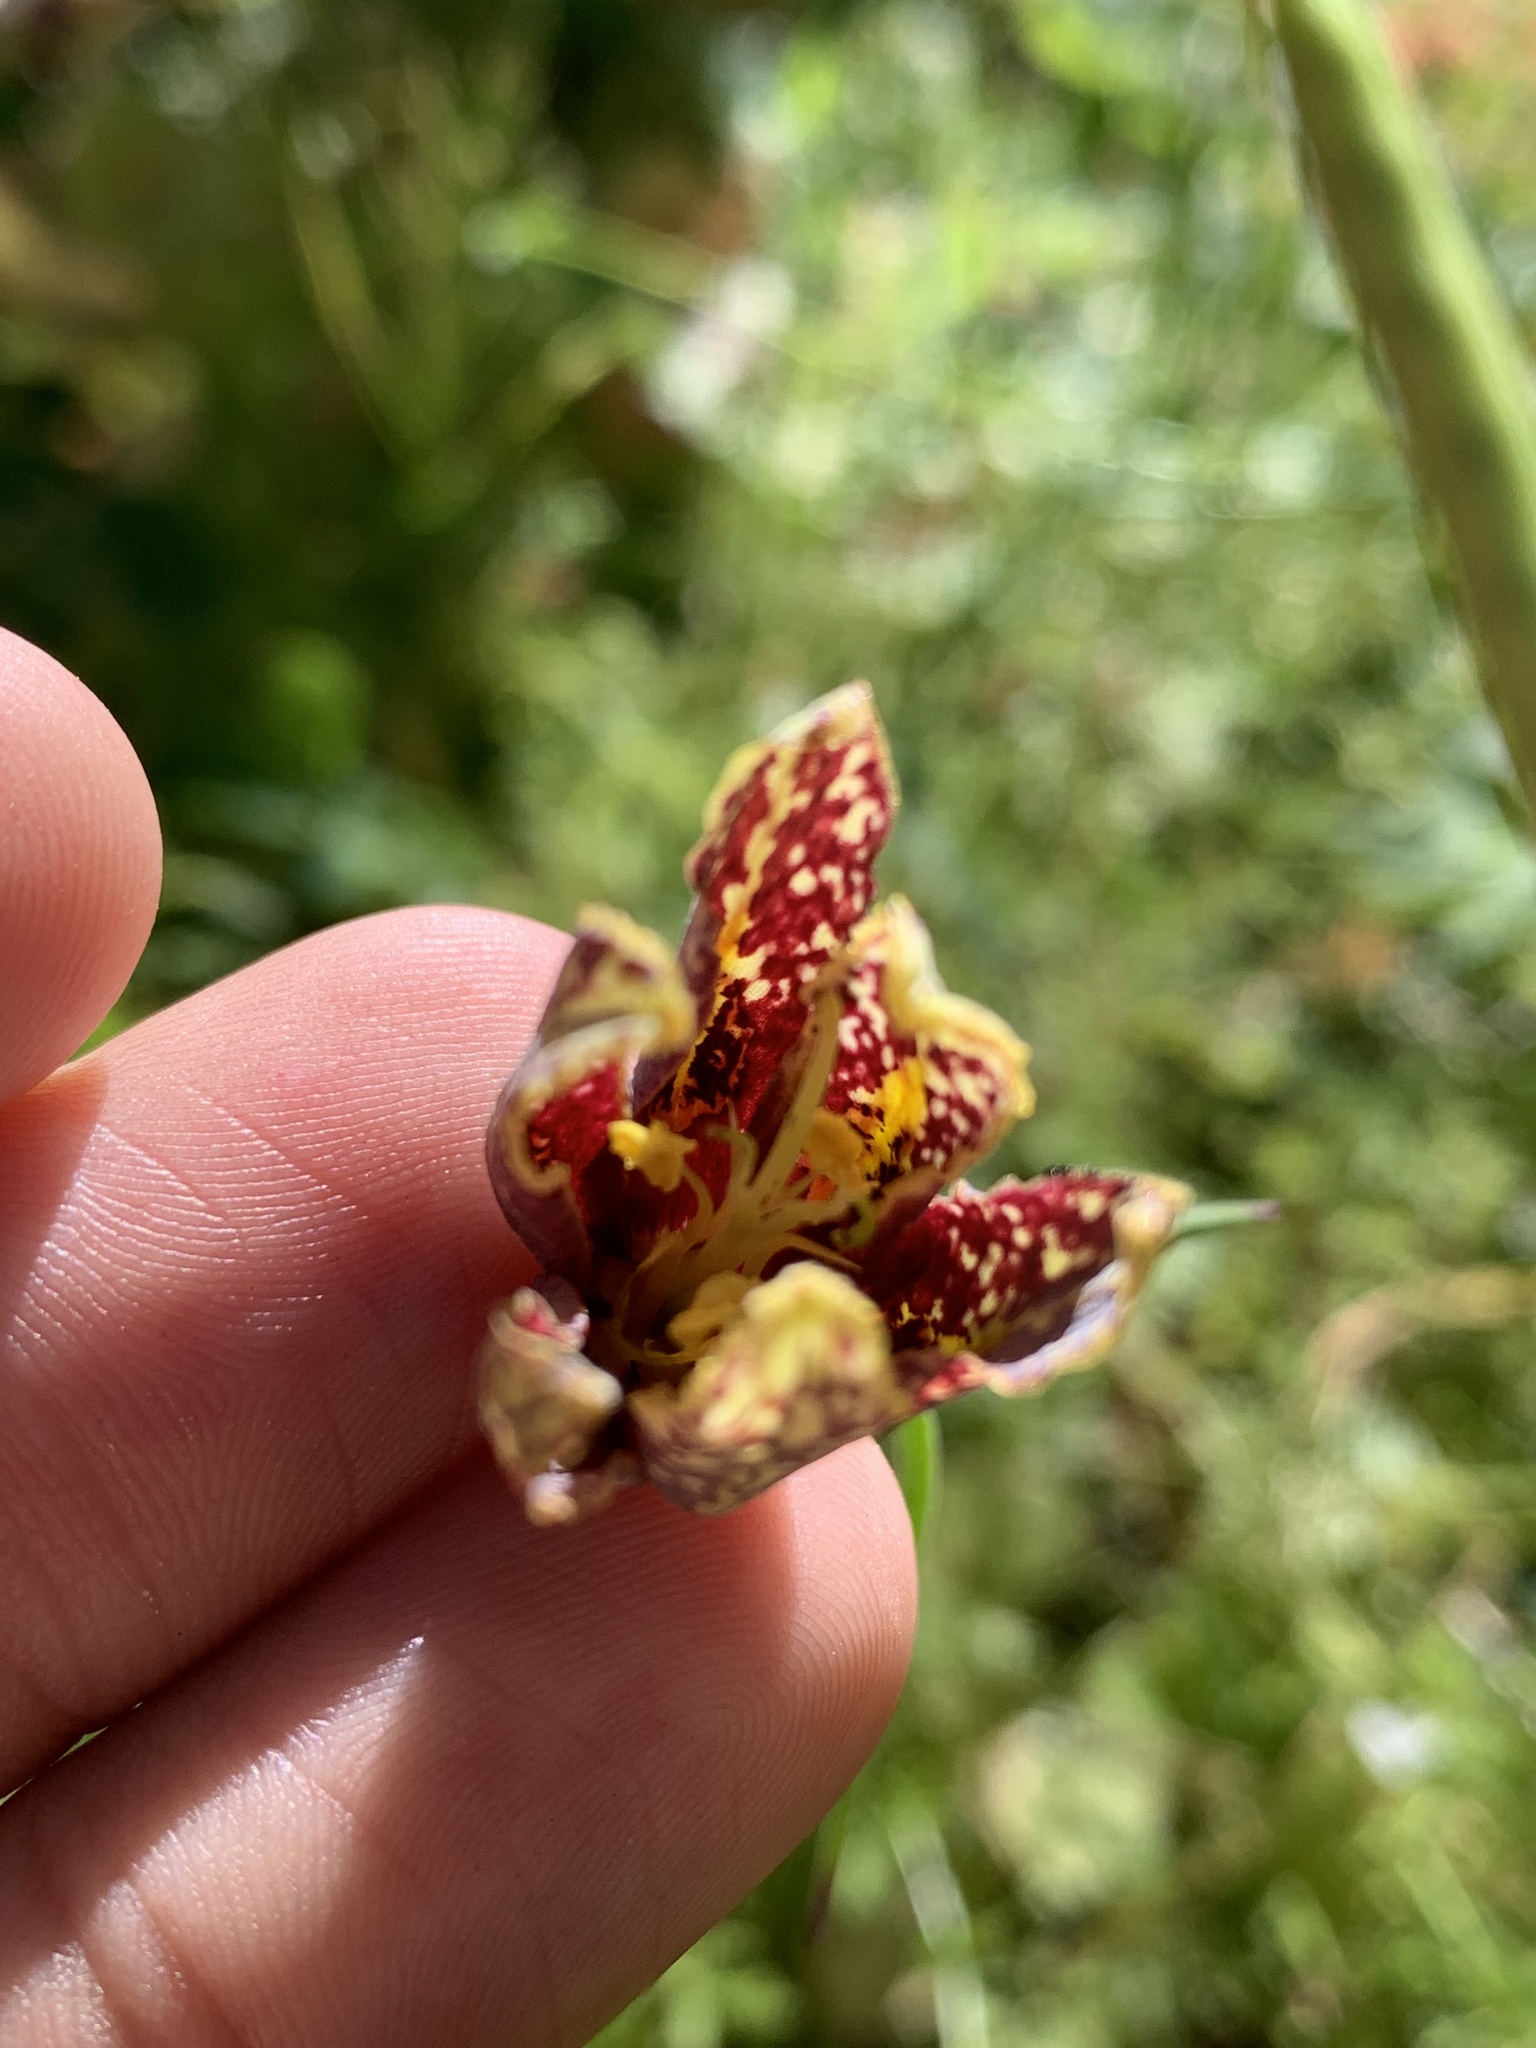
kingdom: Plantae
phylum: Tracheophyta
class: Liliopsida
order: Liliales
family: Liliaceae
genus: Fritillaria
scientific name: Fritillaria affinis
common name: Ojai fritillary
